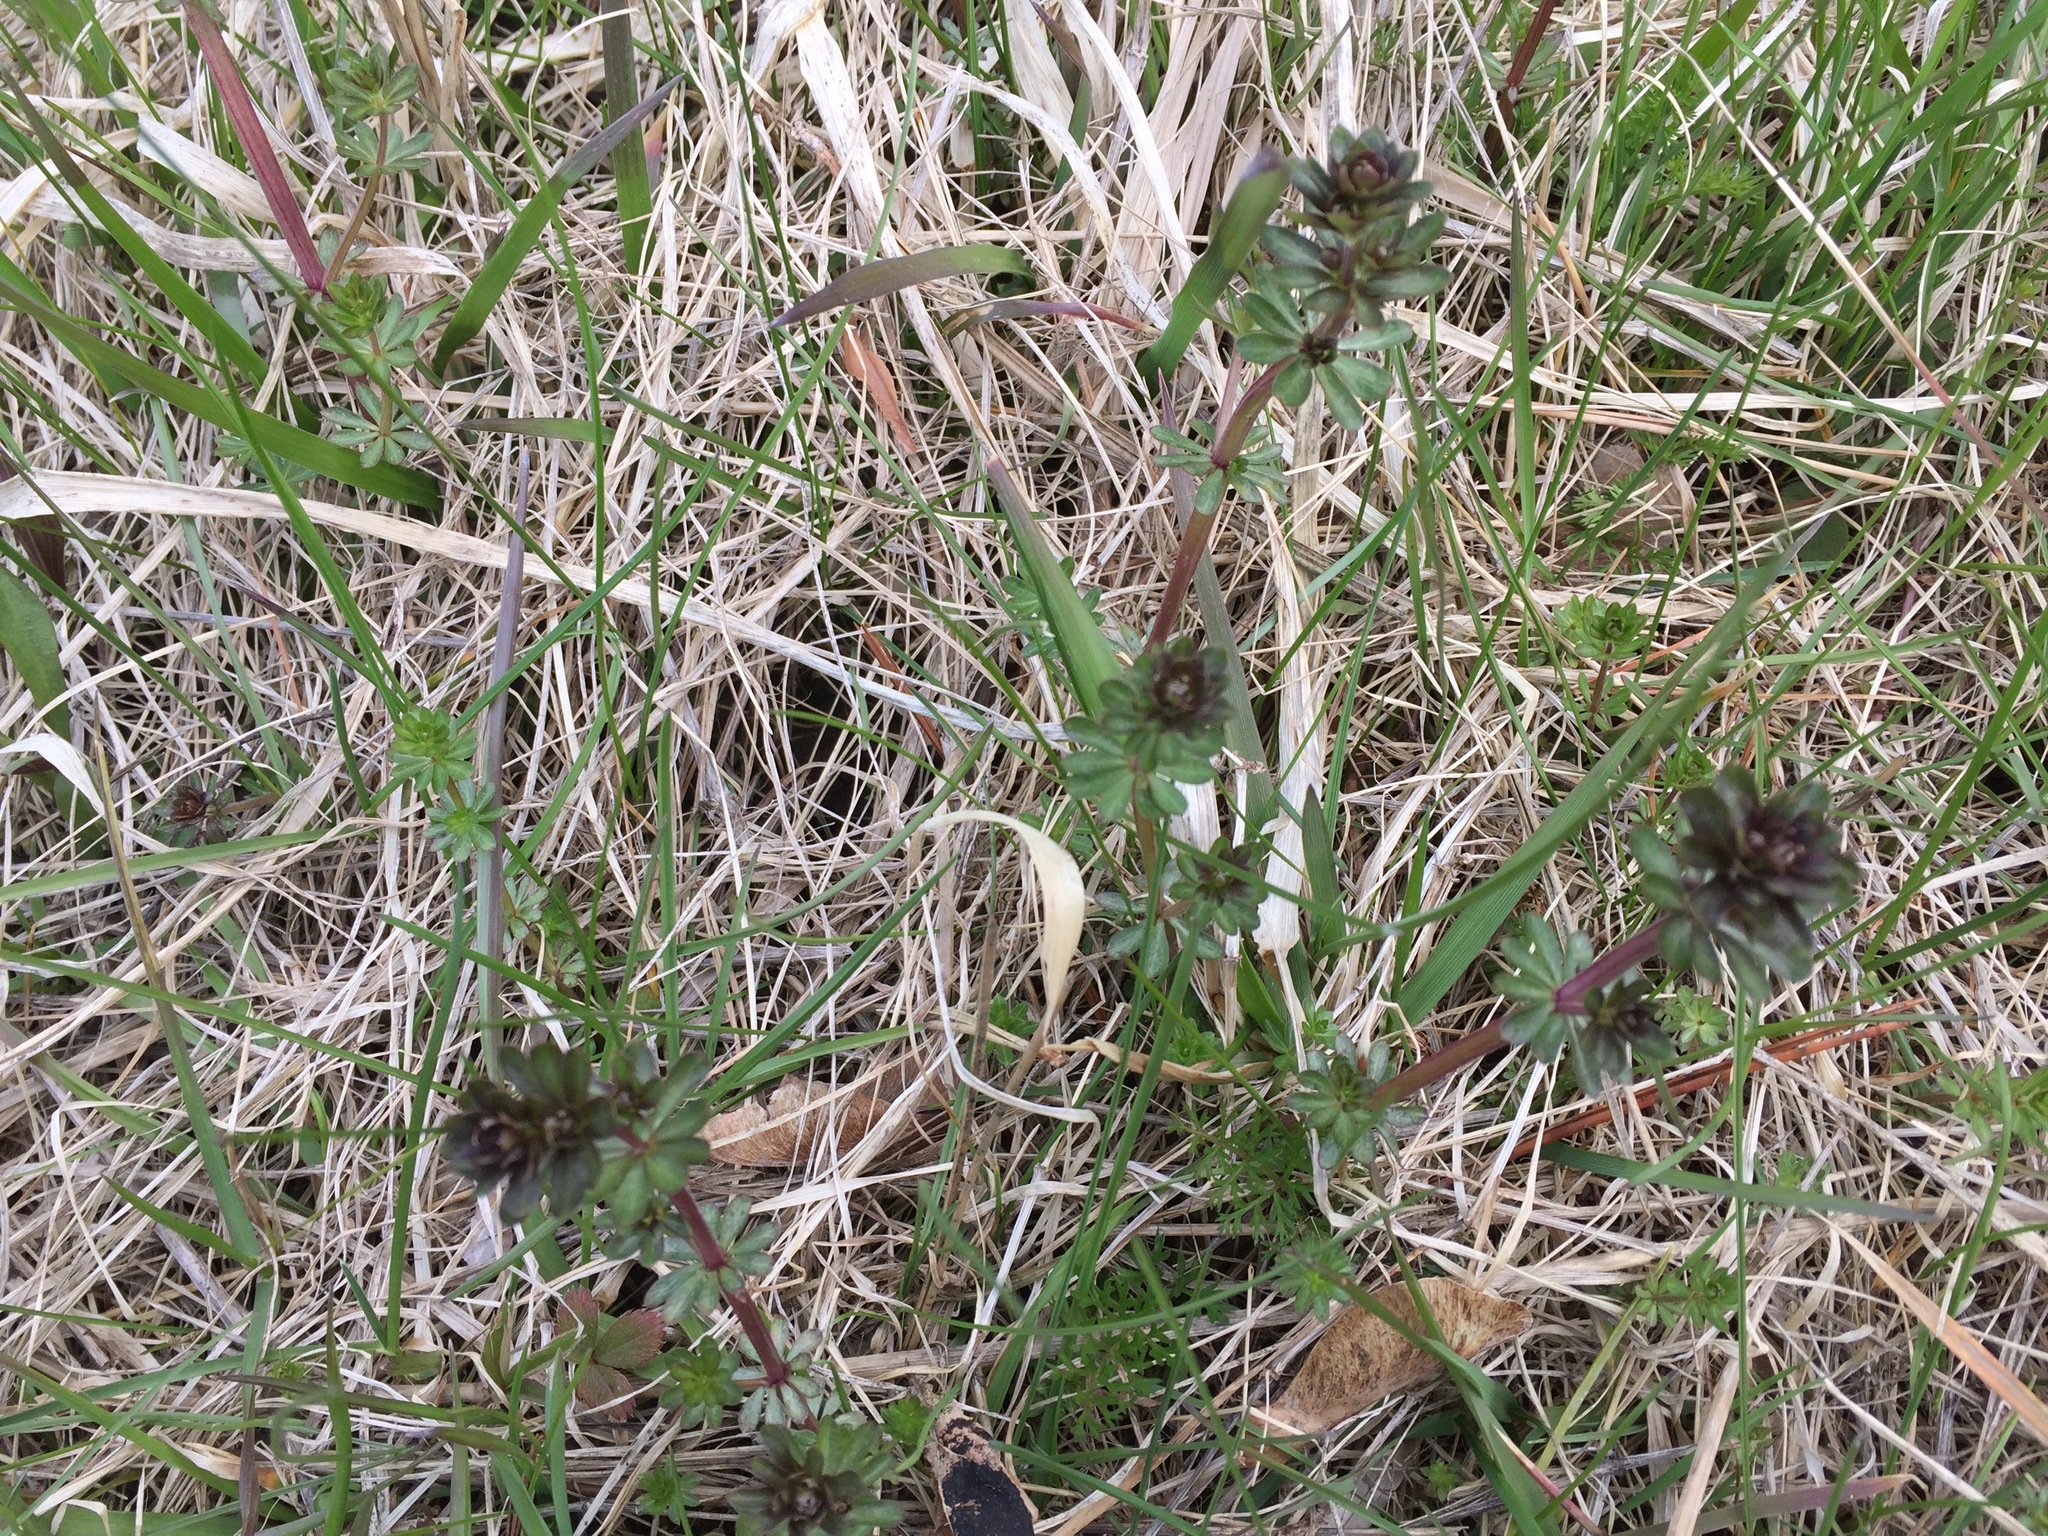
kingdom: Plantae
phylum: Tracheophyta
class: Magnoliopsida
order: Gentianales
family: Rubiaceae
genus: Galium
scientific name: Galium mollugo
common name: Hedge bedstraw
